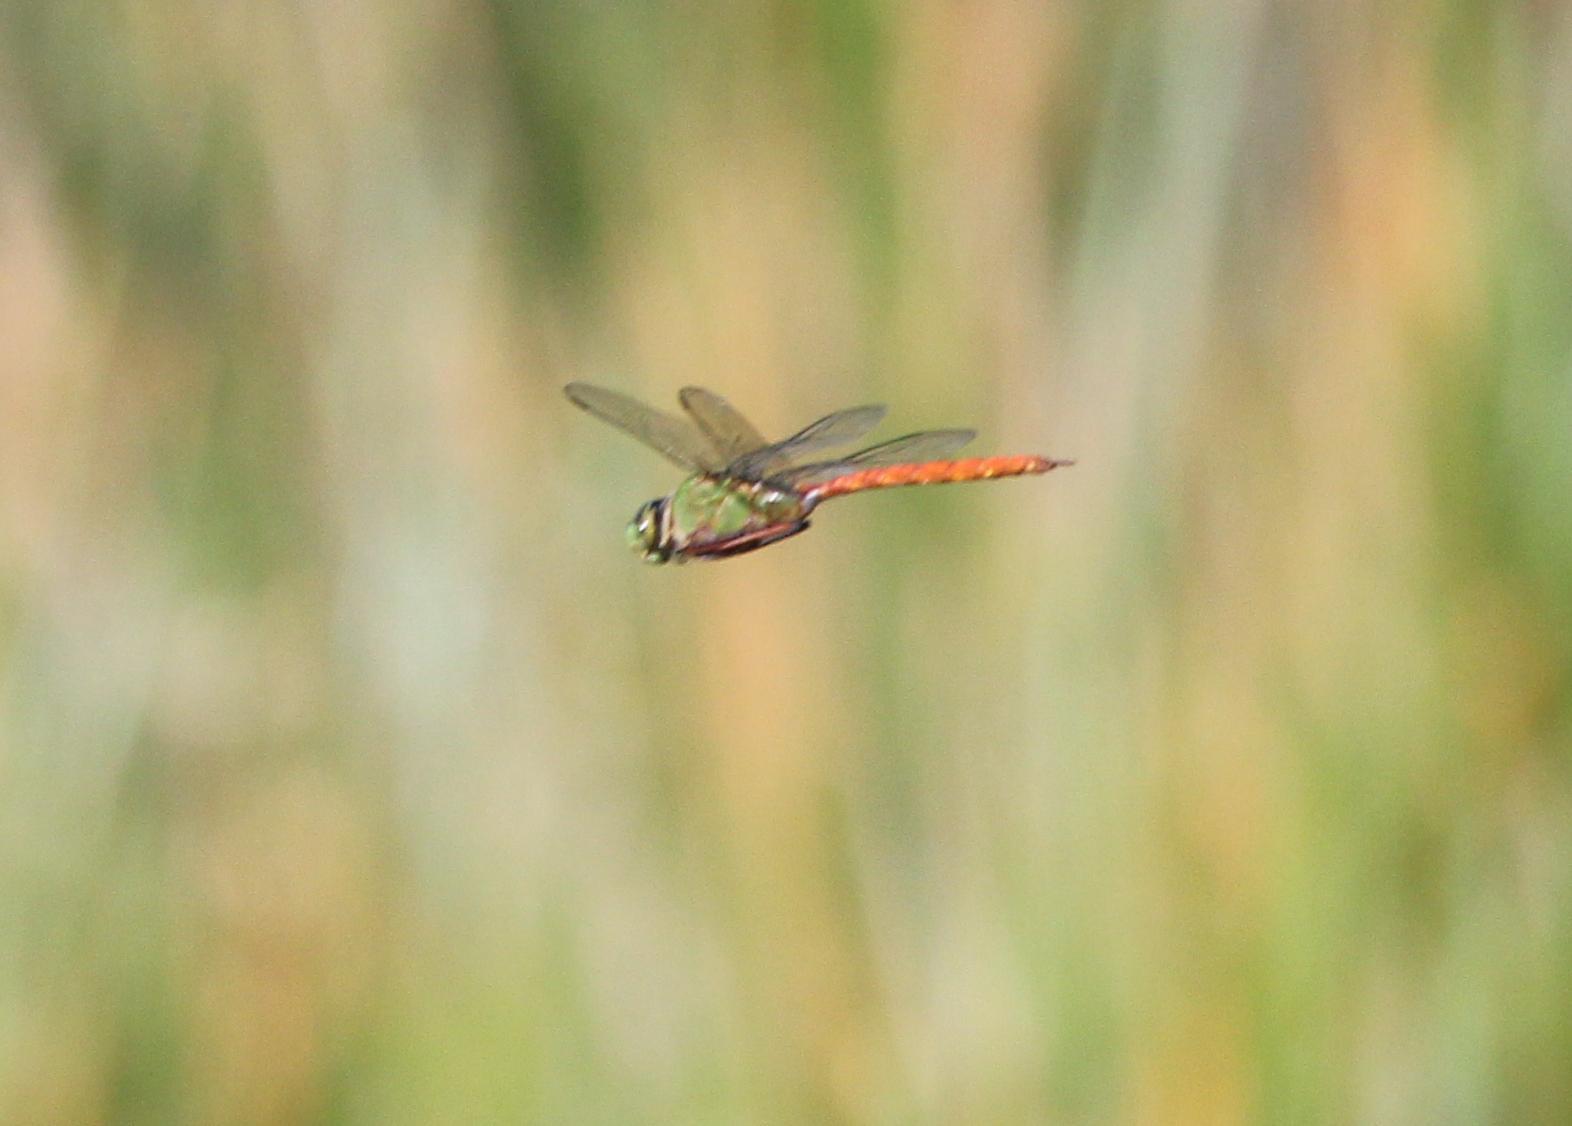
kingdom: Animalia
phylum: Arthropoda
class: Insecta
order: Odonata
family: Aeshnidae
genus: Anax
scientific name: Anax longipes
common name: Comet darner
